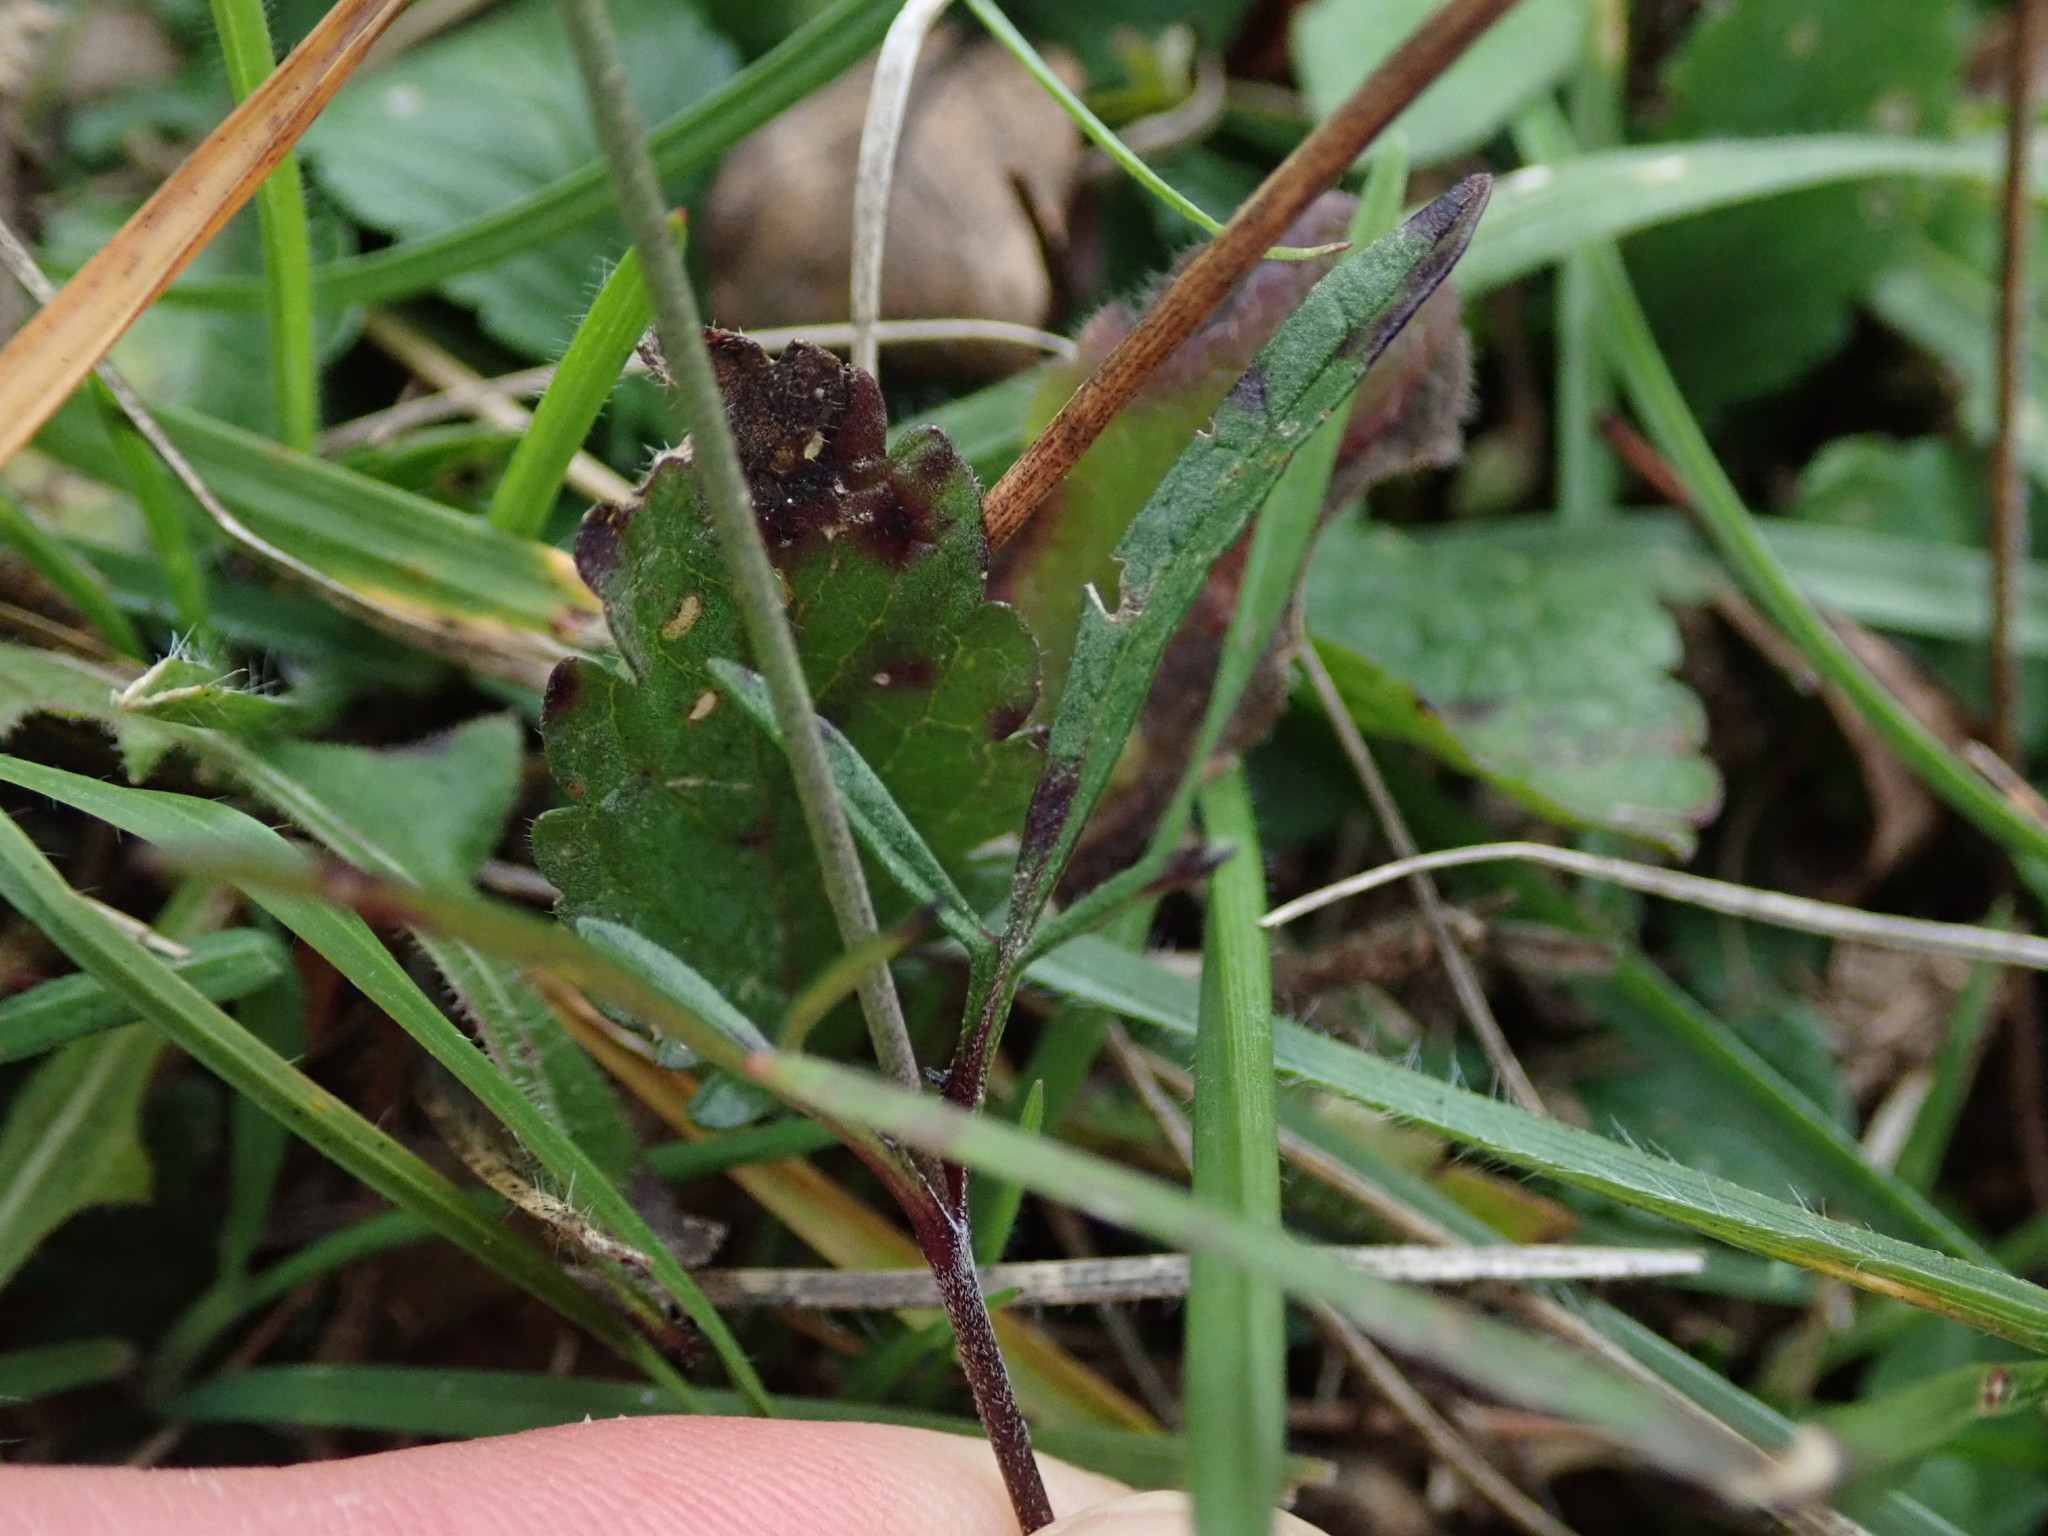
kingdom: Plantae
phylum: Tracheophyta
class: Magnoliopsida
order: Dipsacales
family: Caprifoliaceae
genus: Scabiosa
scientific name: Scabiosa columbaria
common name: Small scabious
